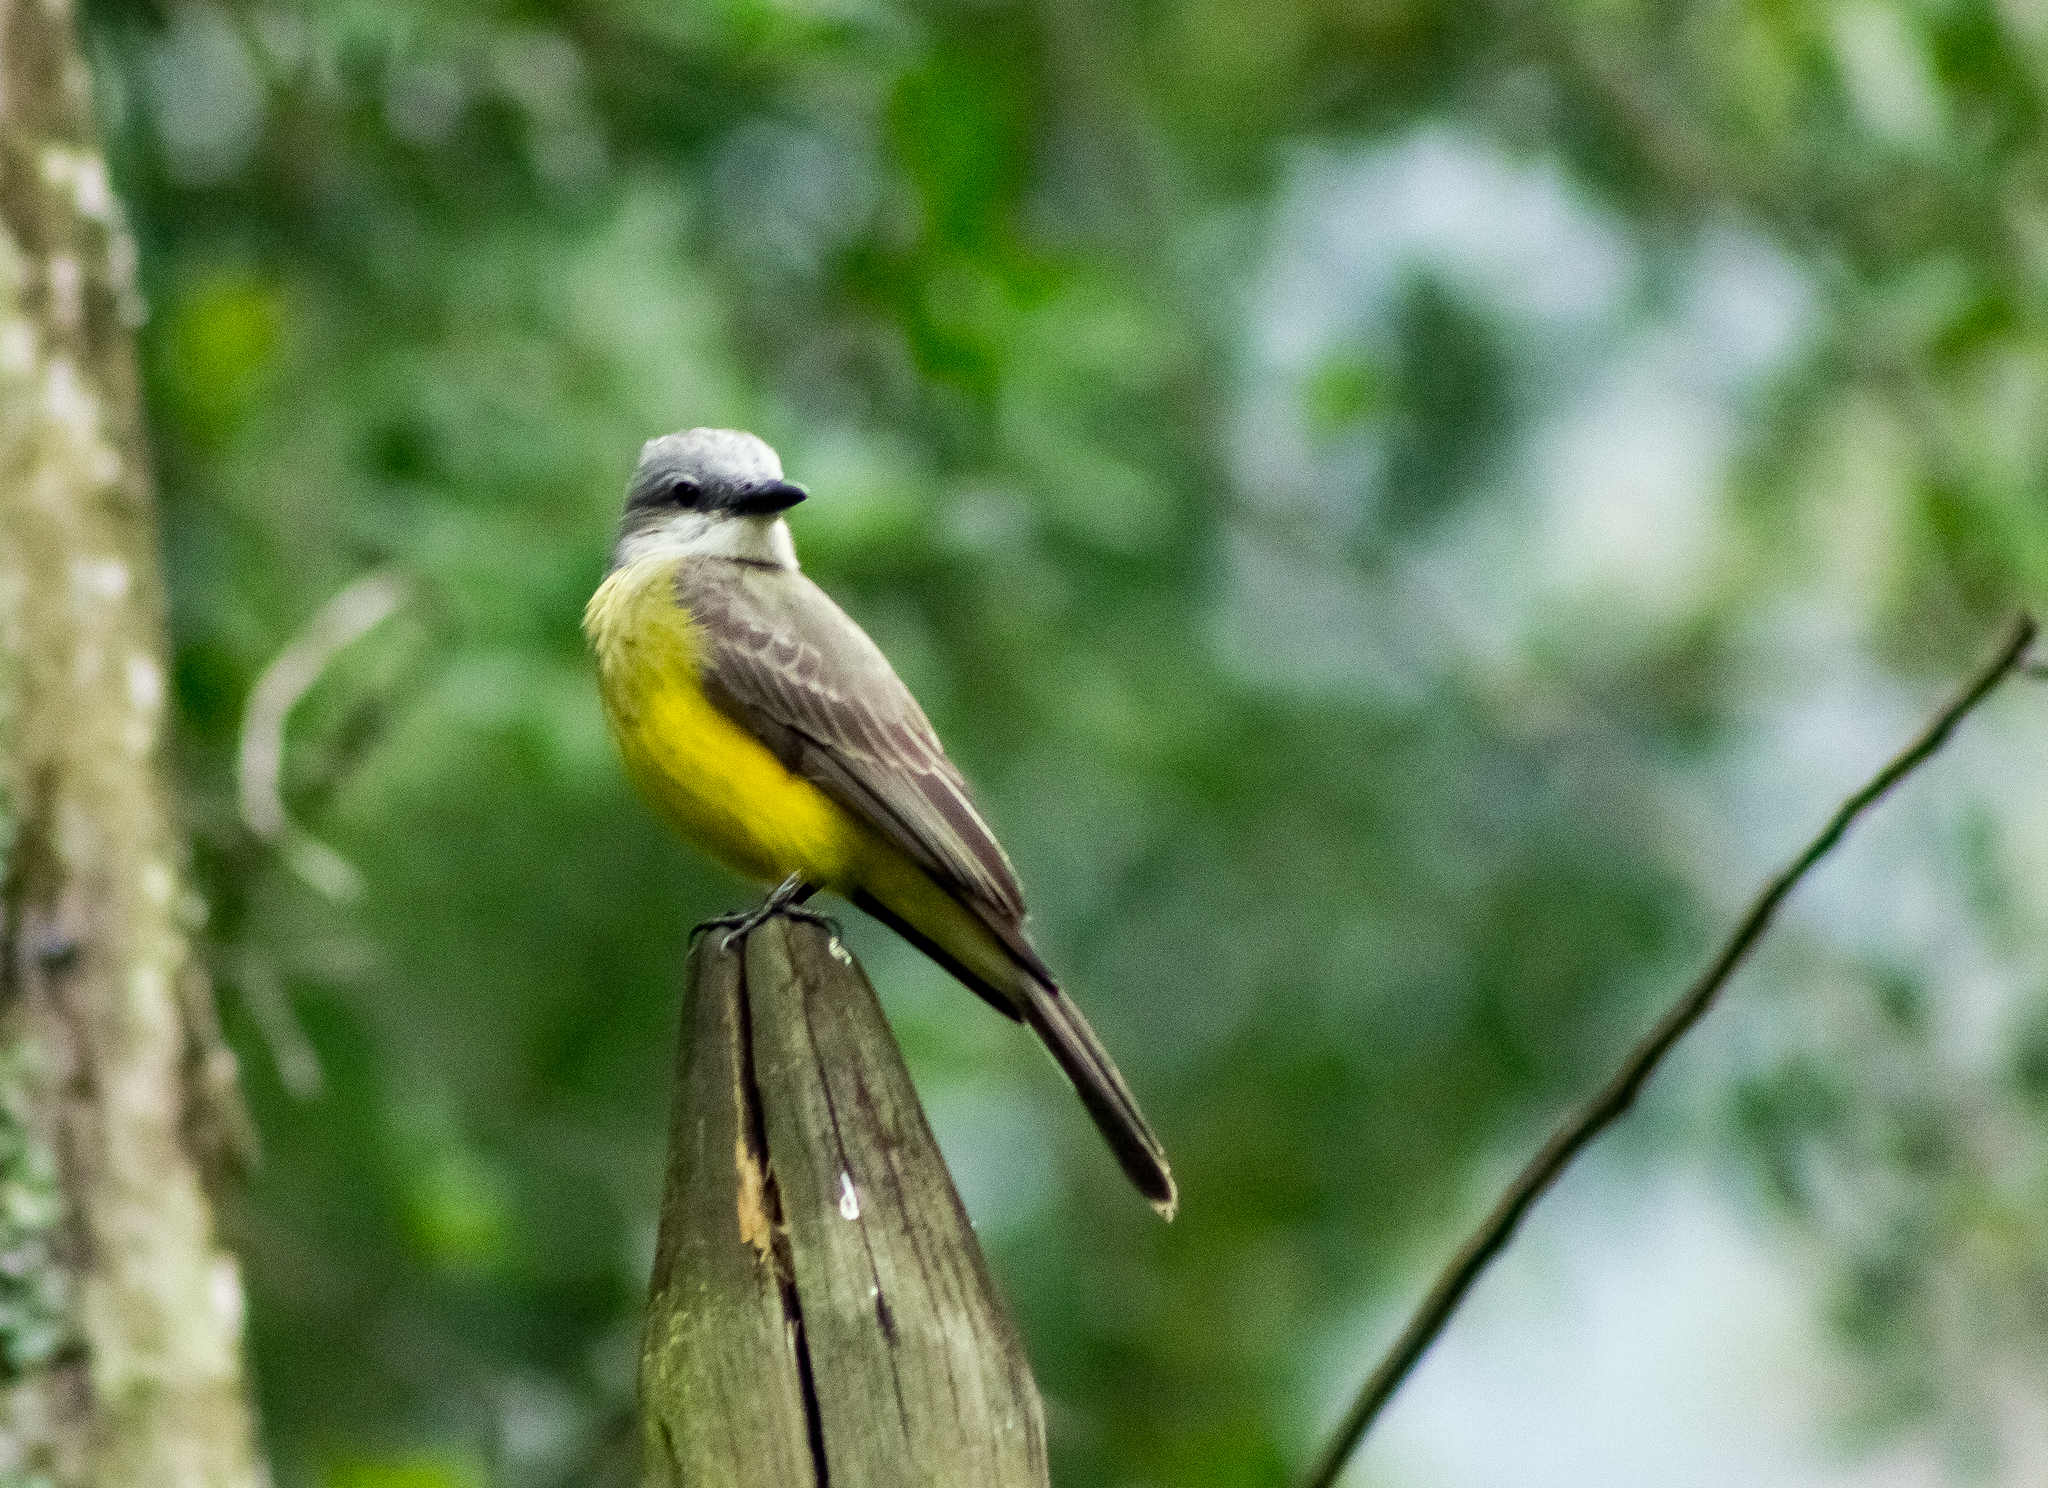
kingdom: Animalia
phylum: Chordata
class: Aves
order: Passeriformes
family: Tyrannidae
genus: Tyrannus
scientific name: Tyrannus melancholicus
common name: Tropical kingbird
